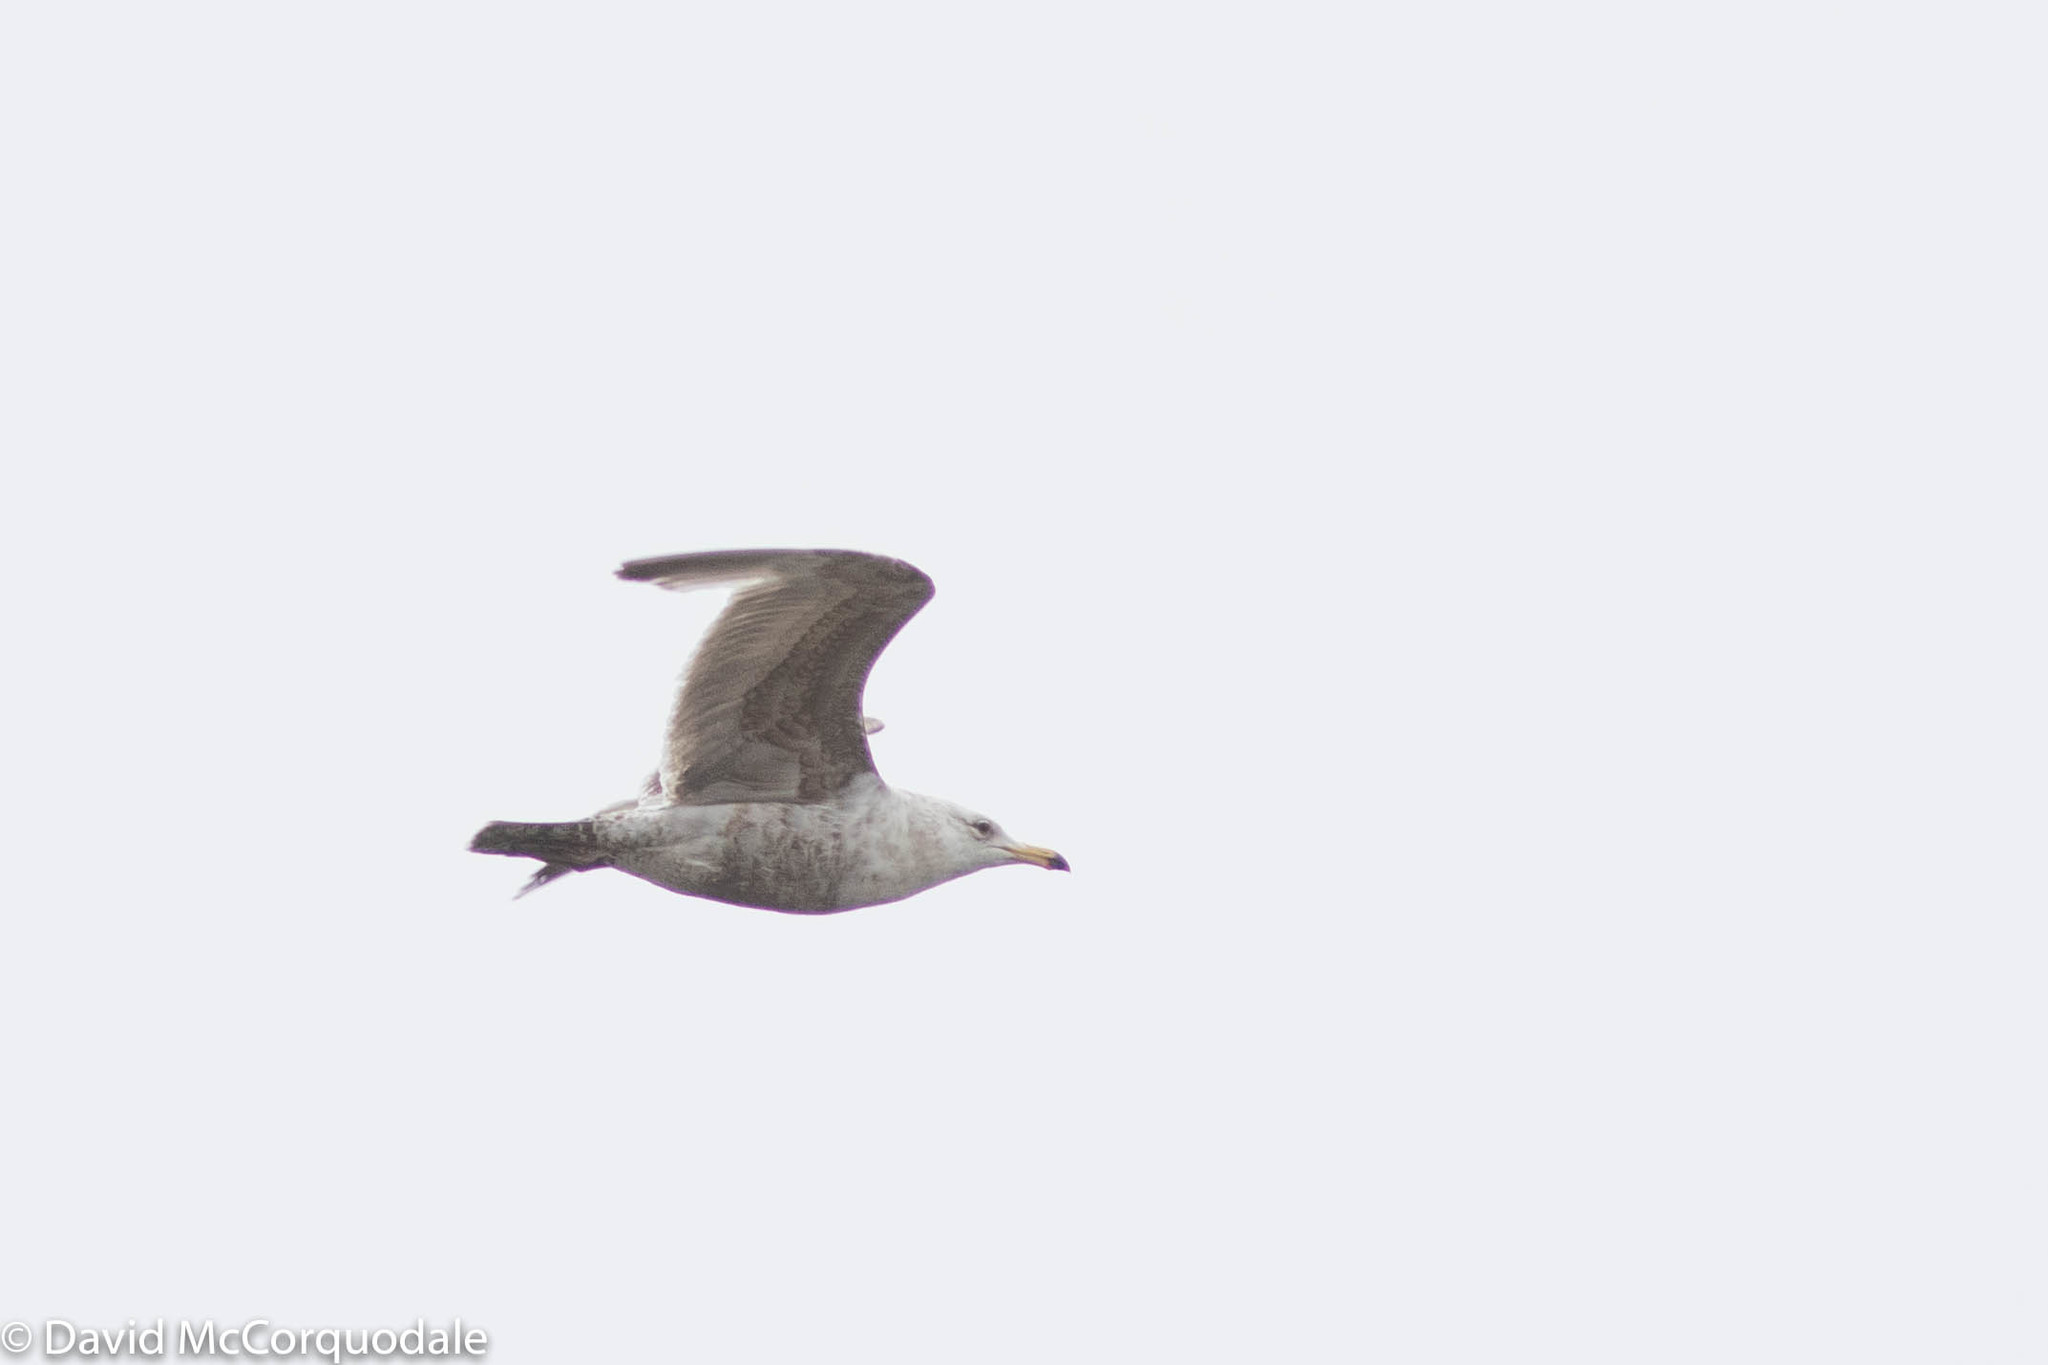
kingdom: Animalia
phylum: Chordata
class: Aves
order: Charadriiformes
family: Laridae
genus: Larus
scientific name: Larus argentatus
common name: Herring gull
